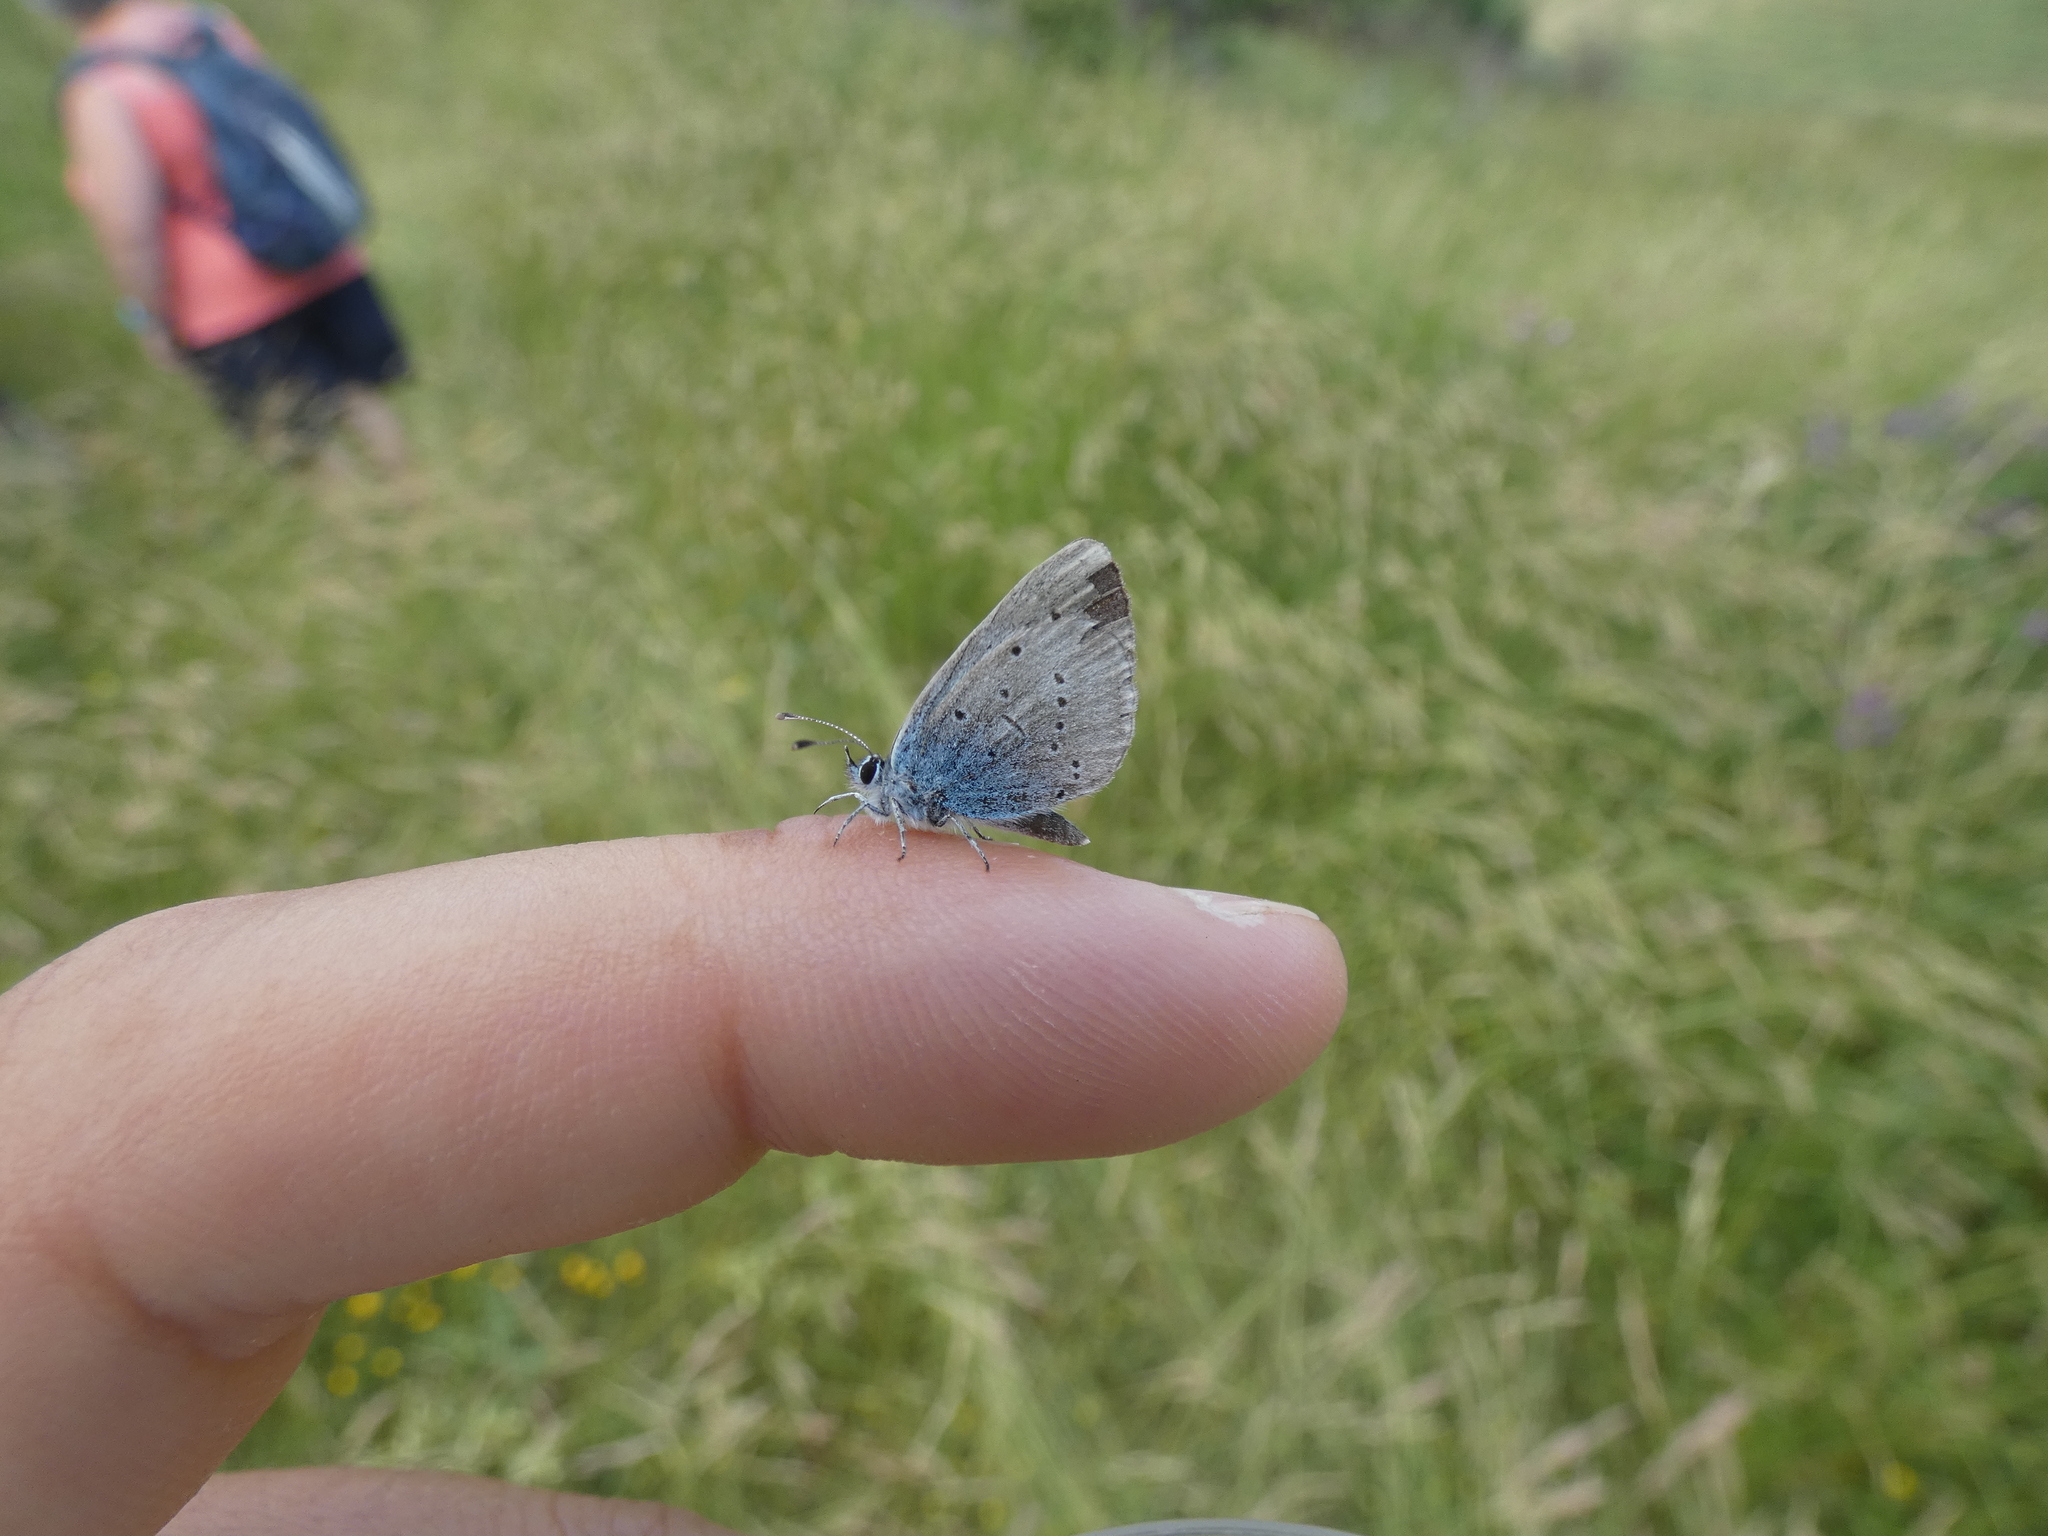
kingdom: Animalia
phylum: Arthropoda
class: Insecta
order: Lepidoptera
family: Lycaenidae
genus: Everes
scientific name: Everes sebrus
